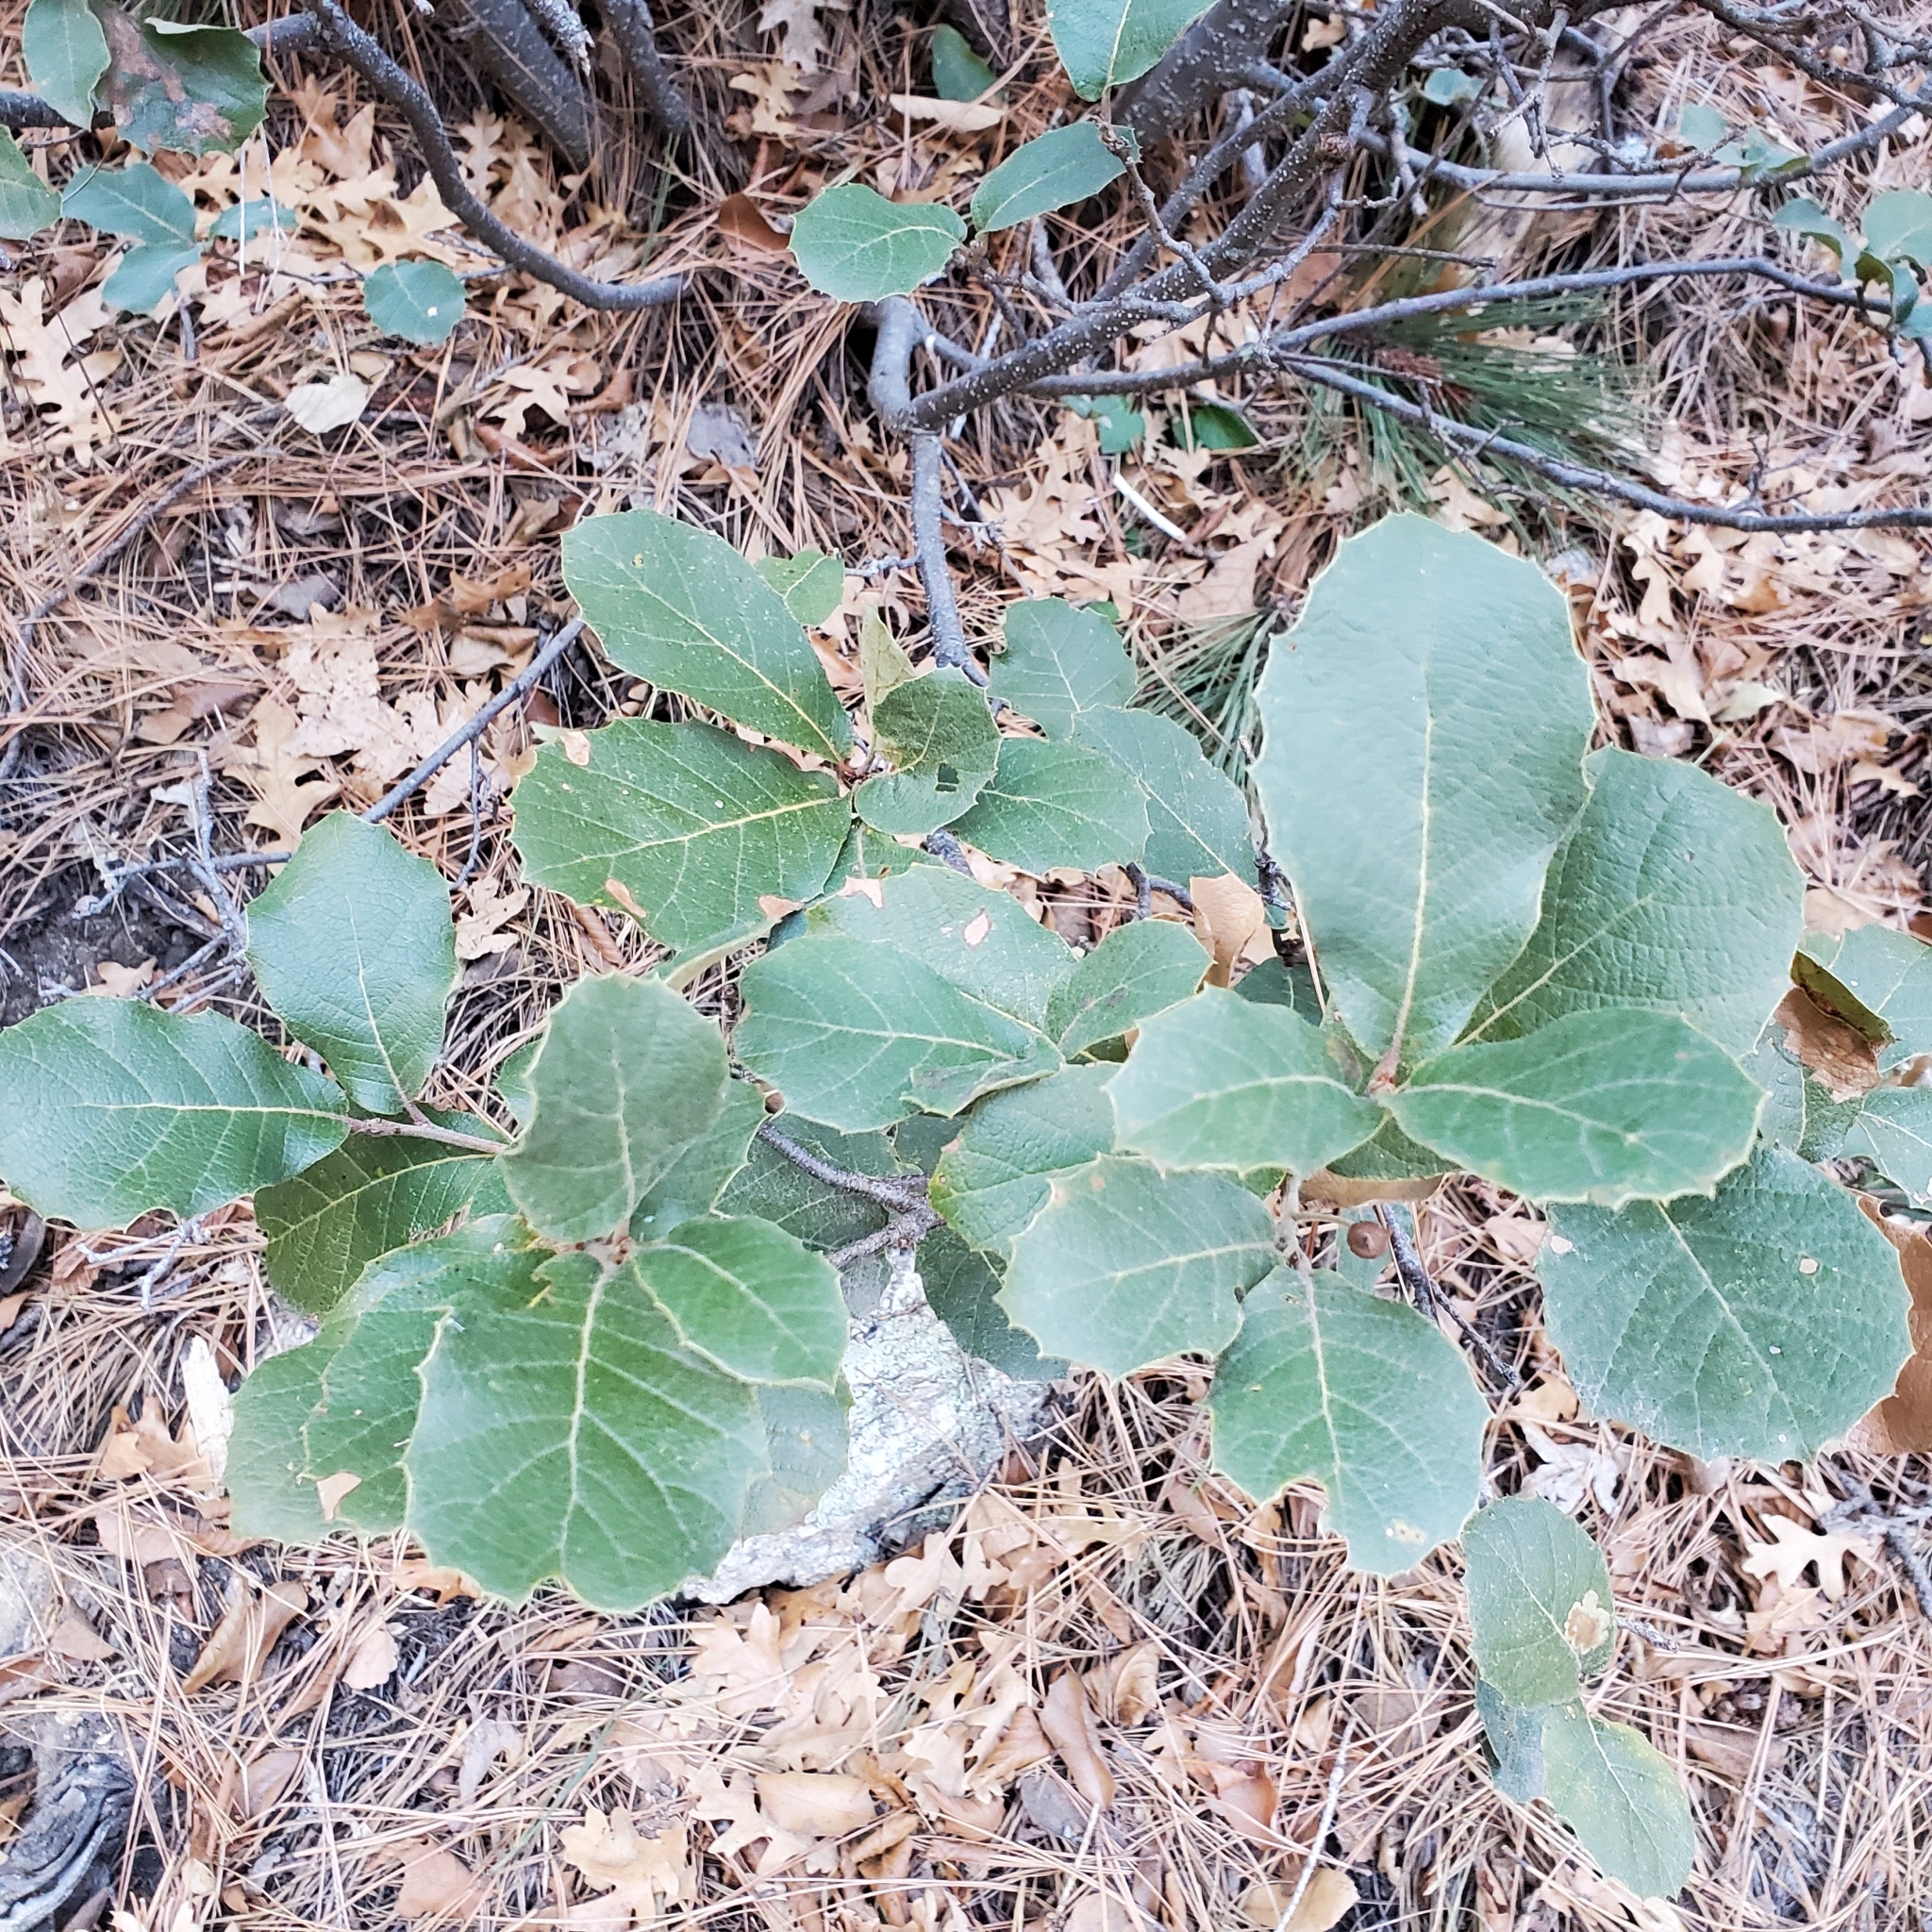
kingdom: Plantae
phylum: Tracheophyta
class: Magnoliopsida
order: Fagales
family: Fagaceae
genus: Quercus
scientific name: Quercus rugosa
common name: Netleaf oak
